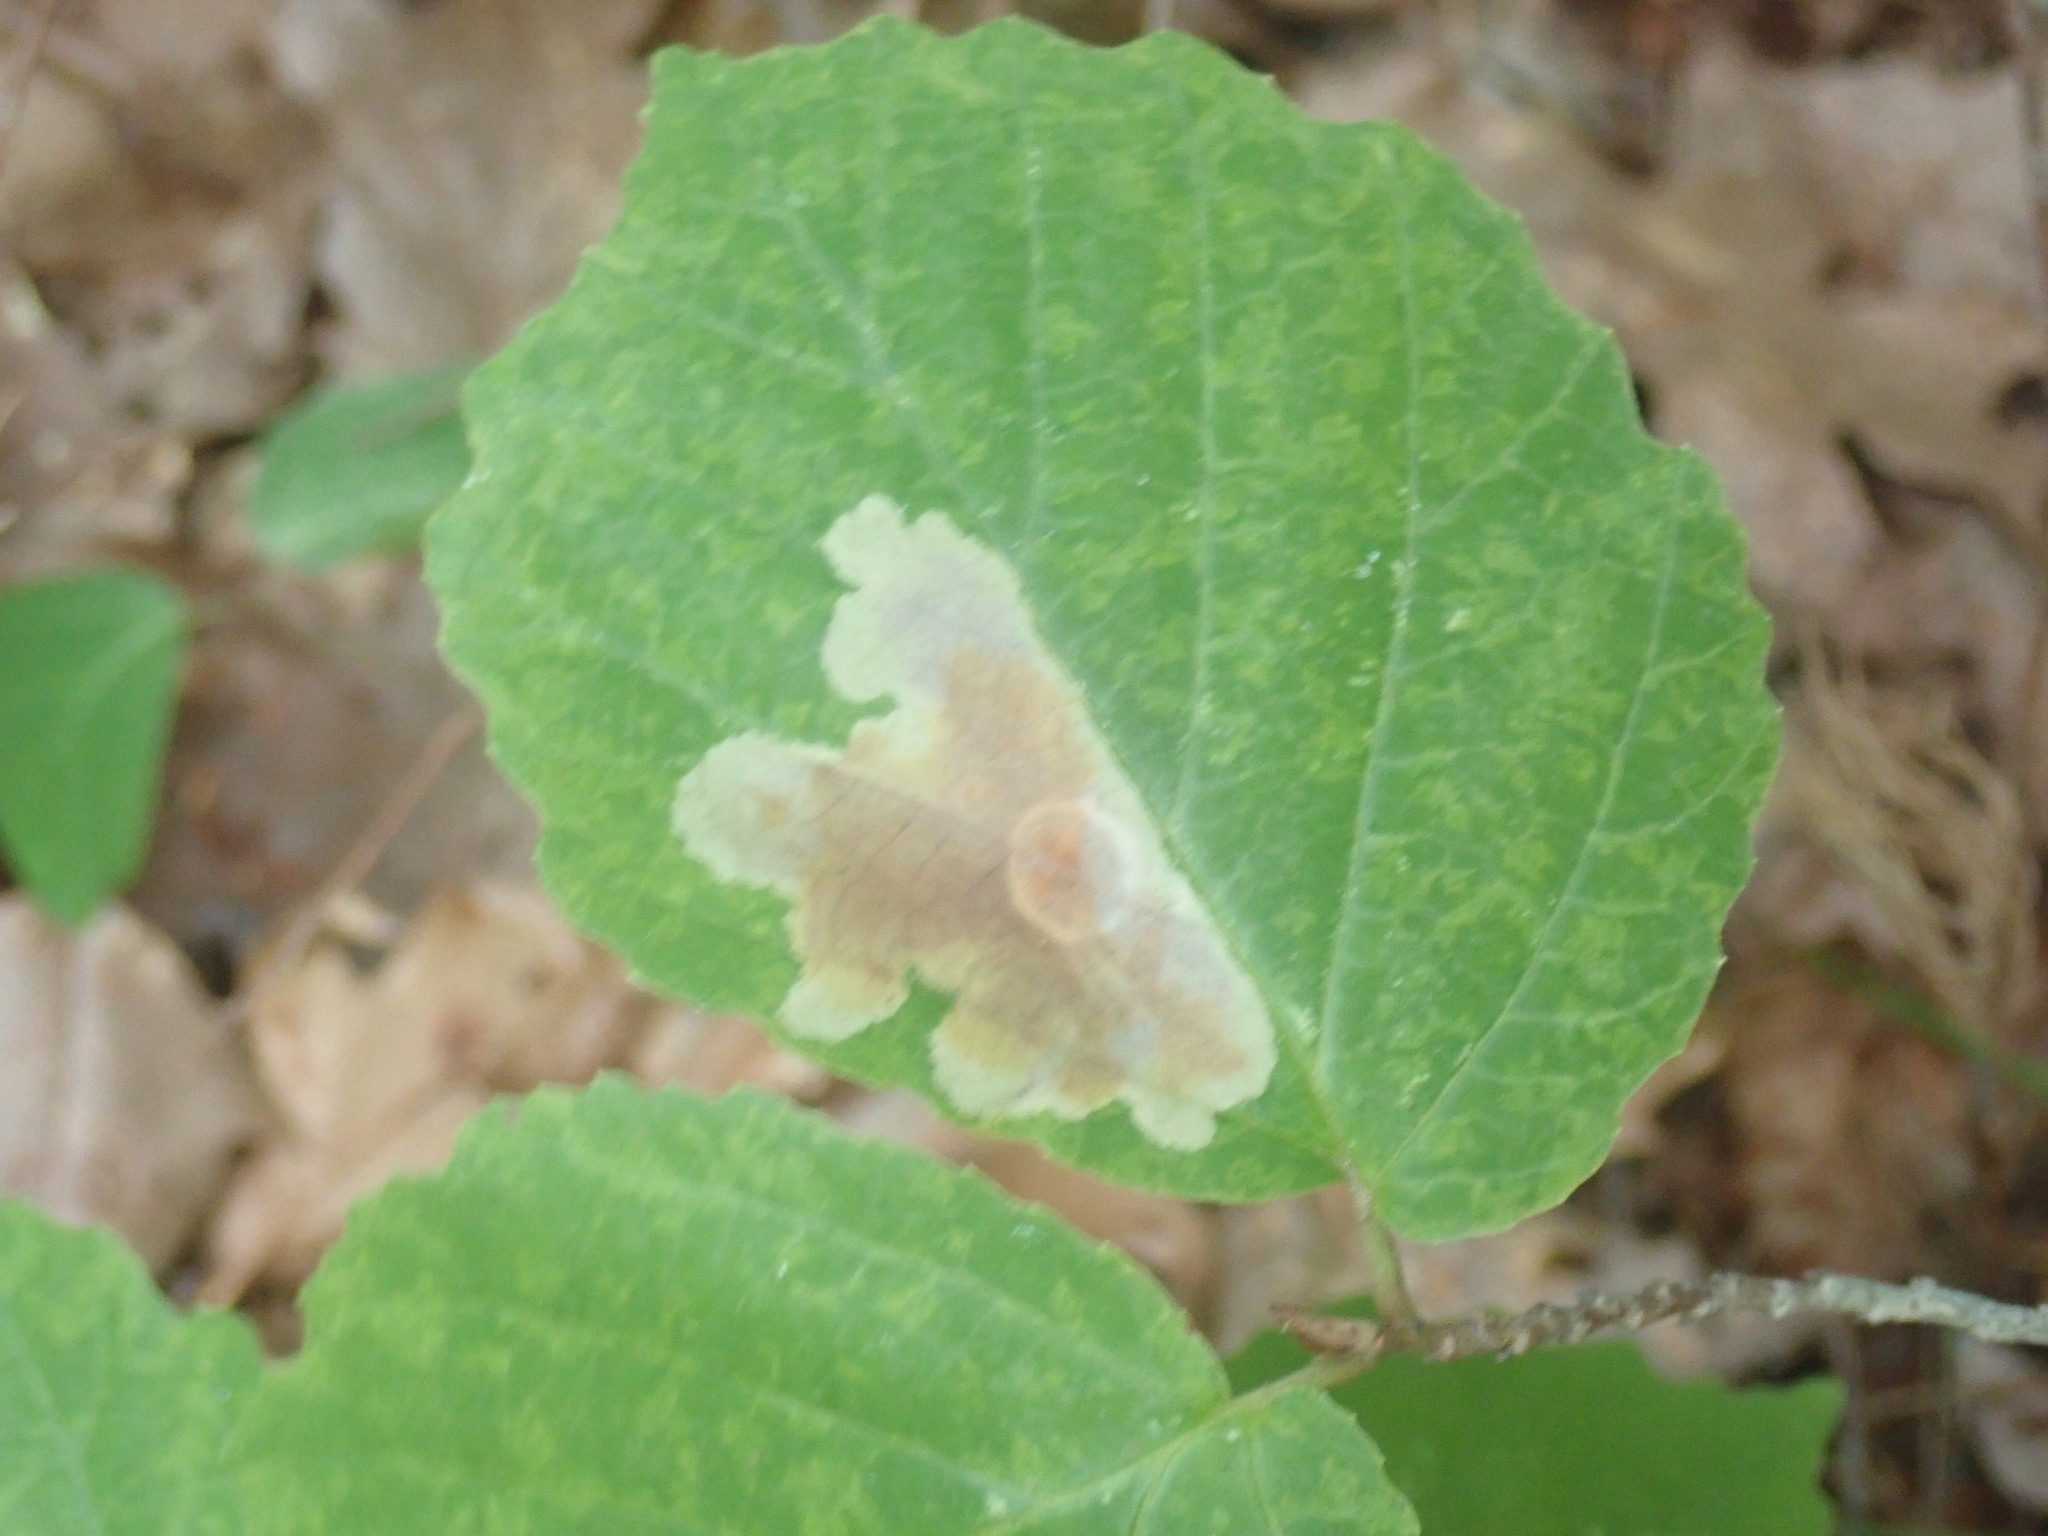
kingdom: Animalia
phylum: Arthropoda
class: Insecta
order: Lepidoptera
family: Gracillariidae
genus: Cameraria
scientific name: Cameraria hamameliella
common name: Witchhazel leafminer
